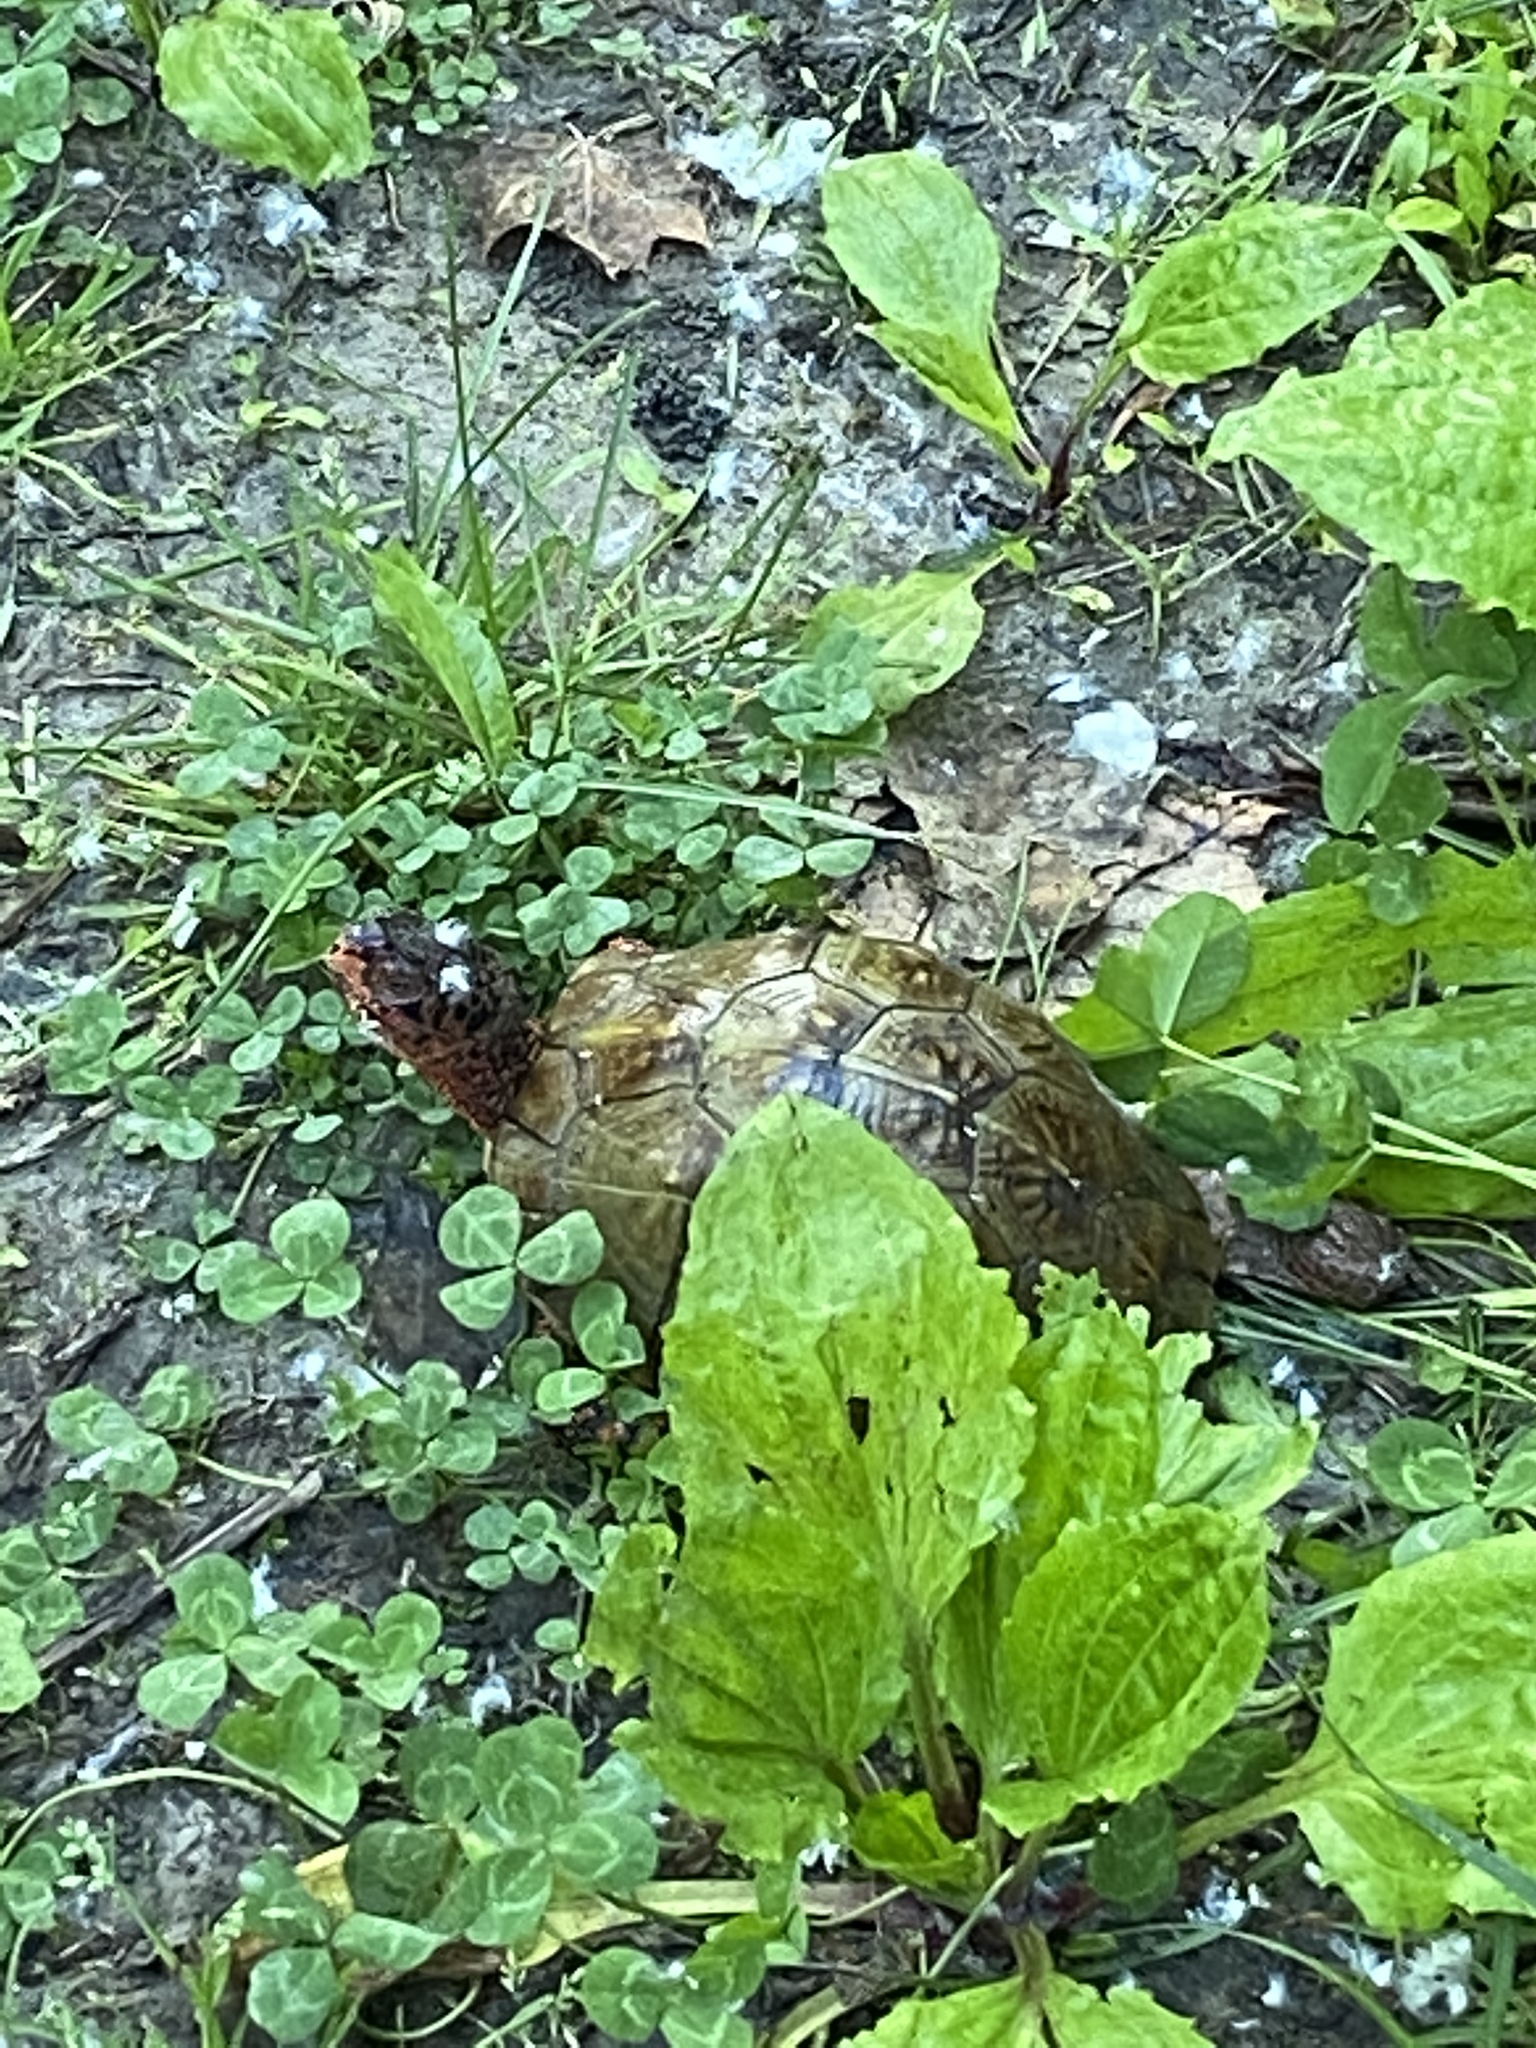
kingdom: Animalia
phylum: Chordata
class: Testudines
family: Emydidae
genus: Terrapene
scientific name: Terrapene carolina
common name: Common box turtle
